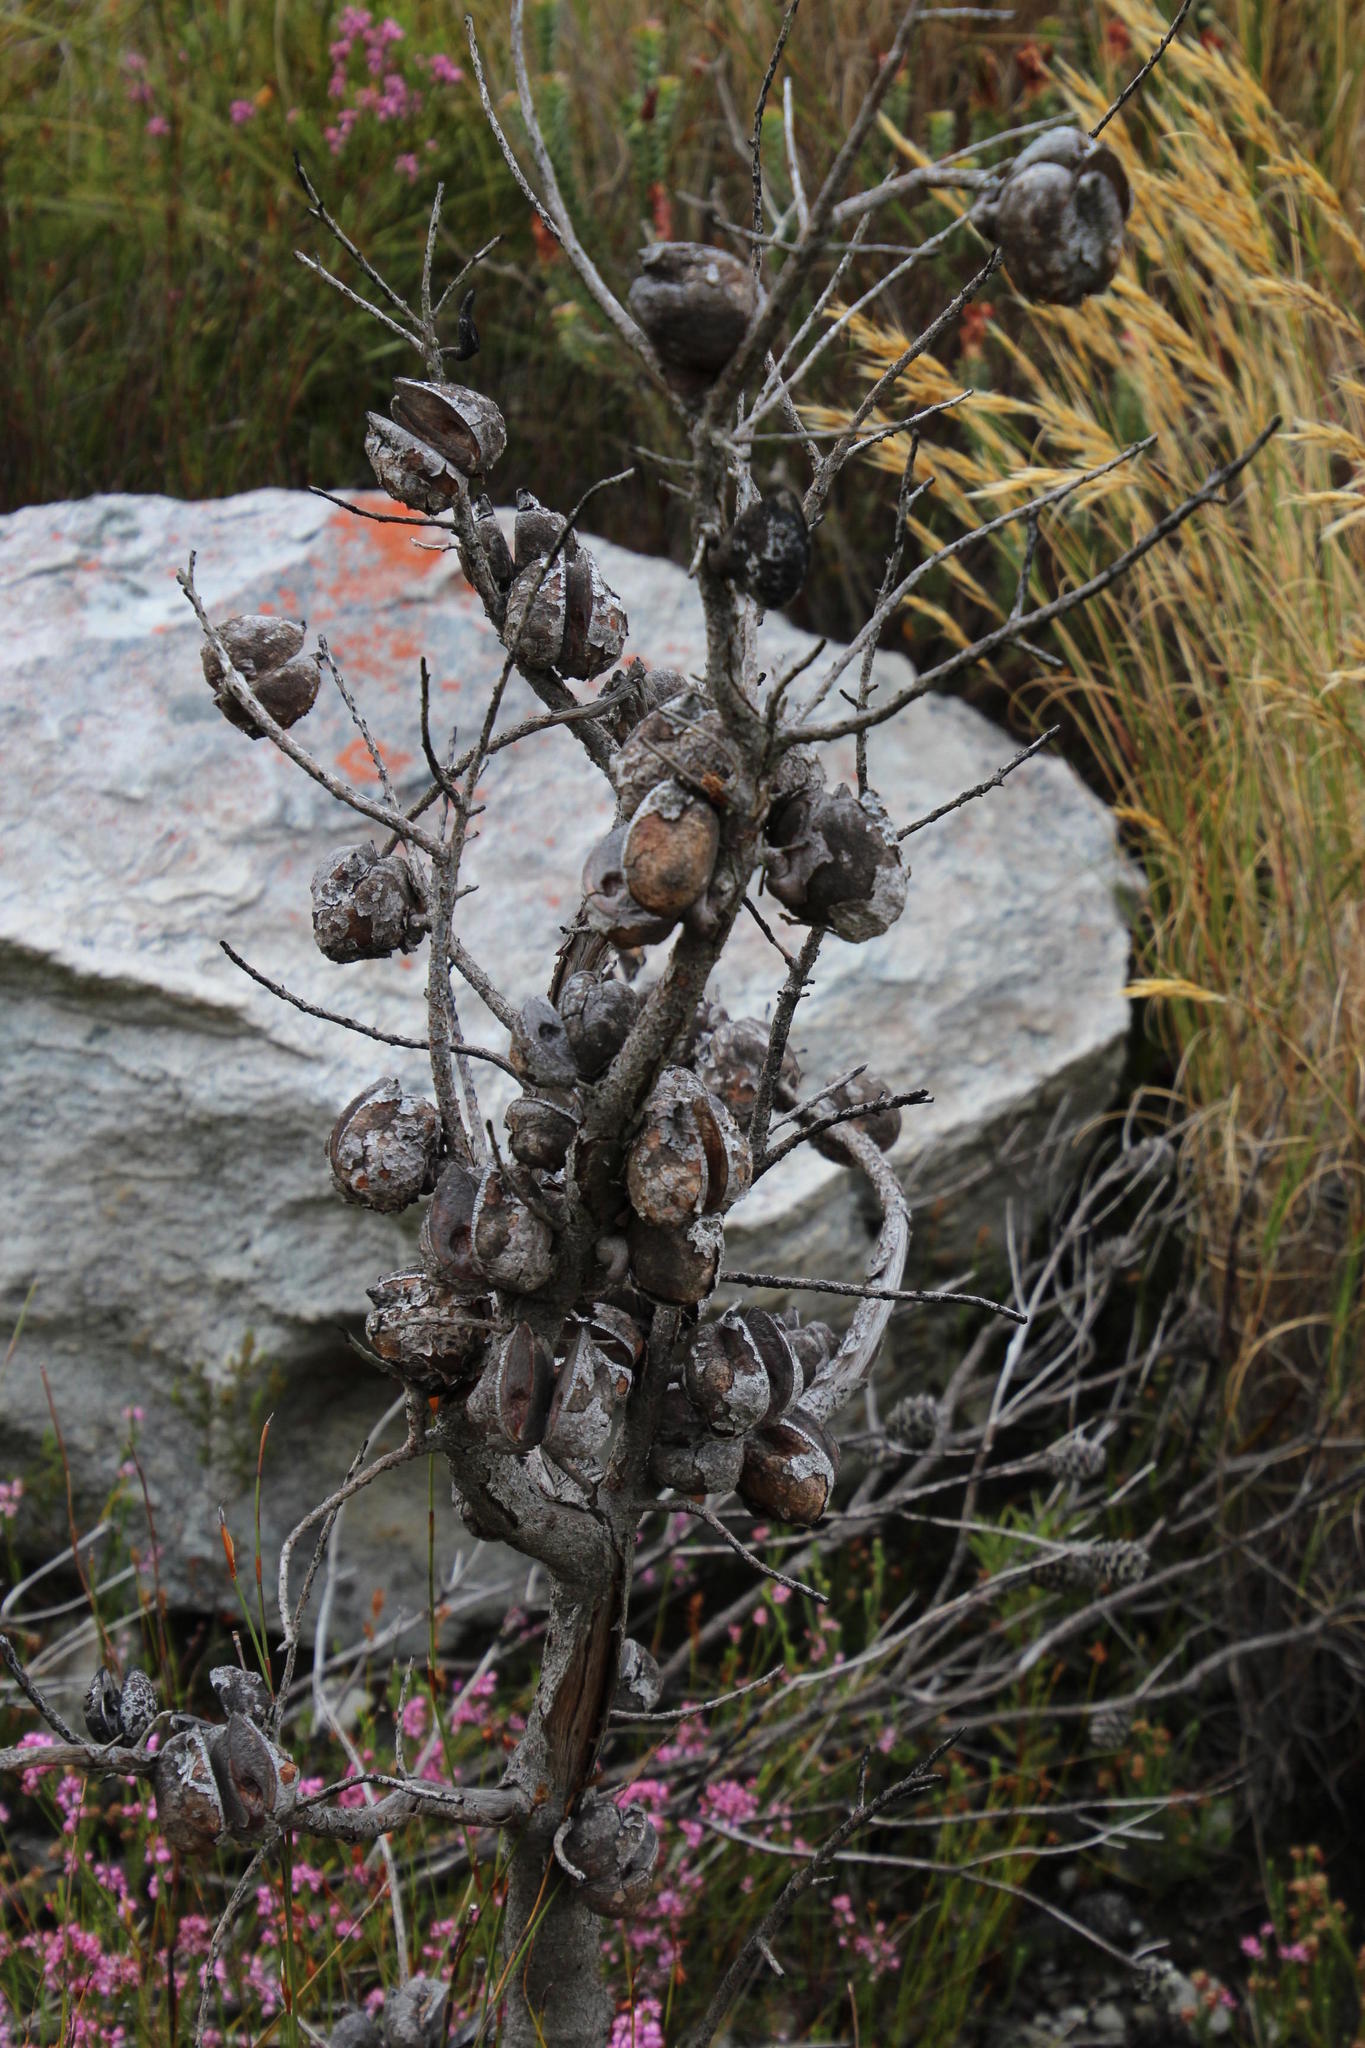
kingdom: Plantae
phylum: Tracheophyta
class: Magnoliopsida
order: Proteales
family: Proteaceae
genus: Hakea
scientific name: Hakea gibbosa
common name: Rock hakea
